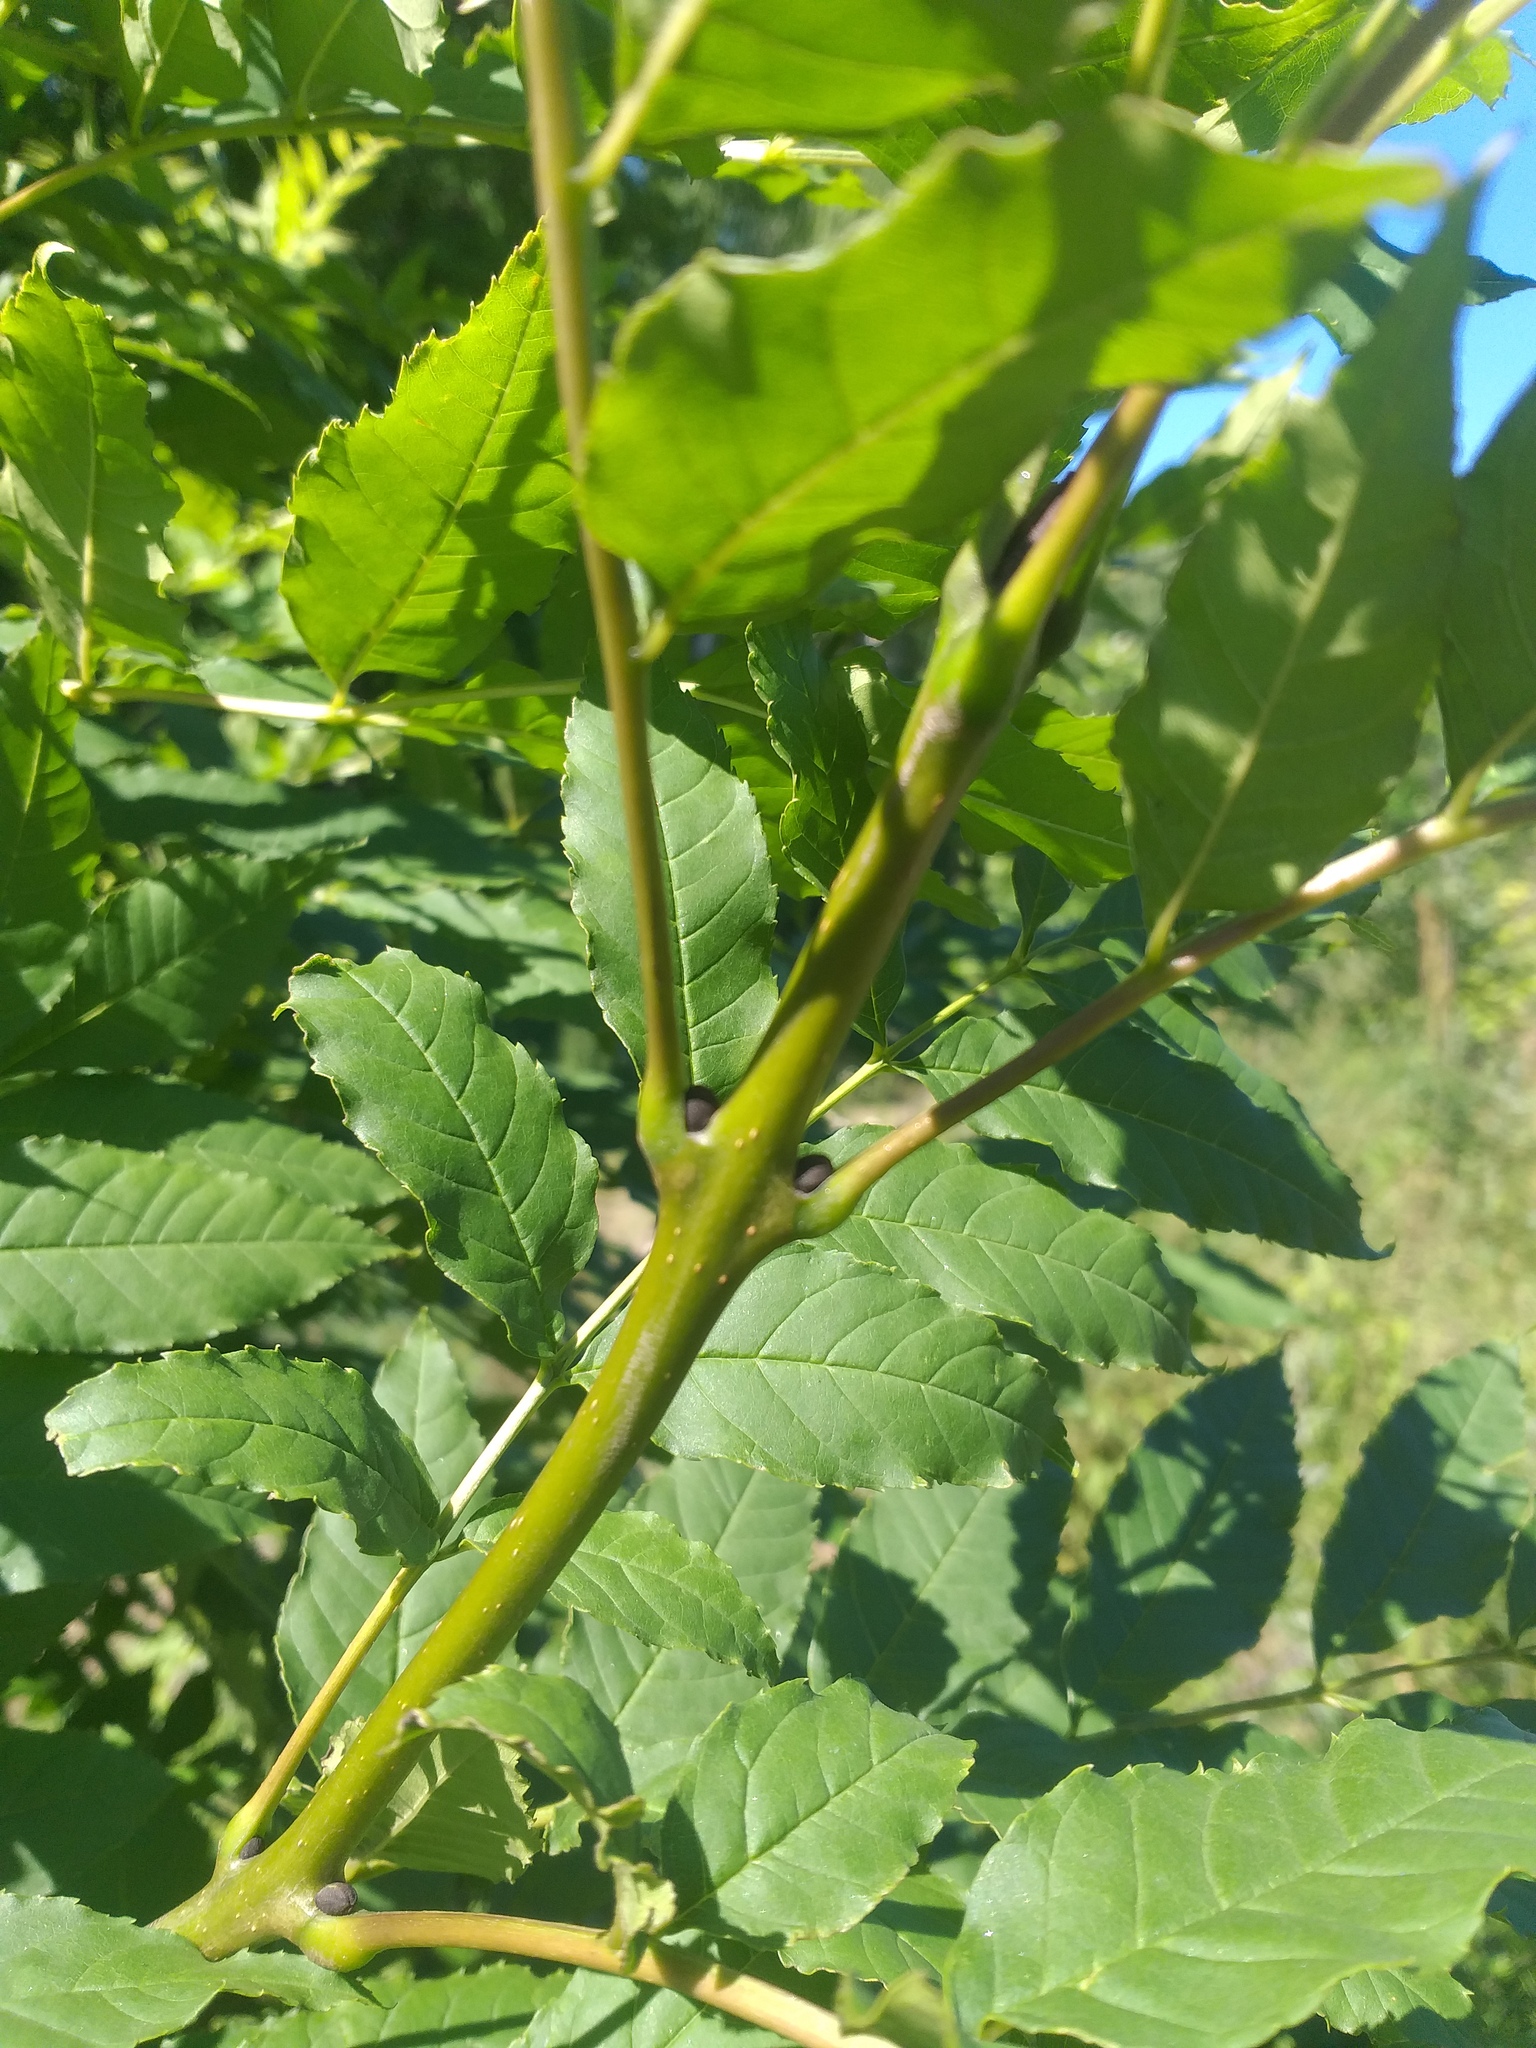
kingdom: Plantae
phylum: Tracheophyta
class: Magnoliopsida
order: Lamiales
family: Oleaceae
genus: Fraxinus
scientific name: Fraxinus excelsior
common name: European ash
